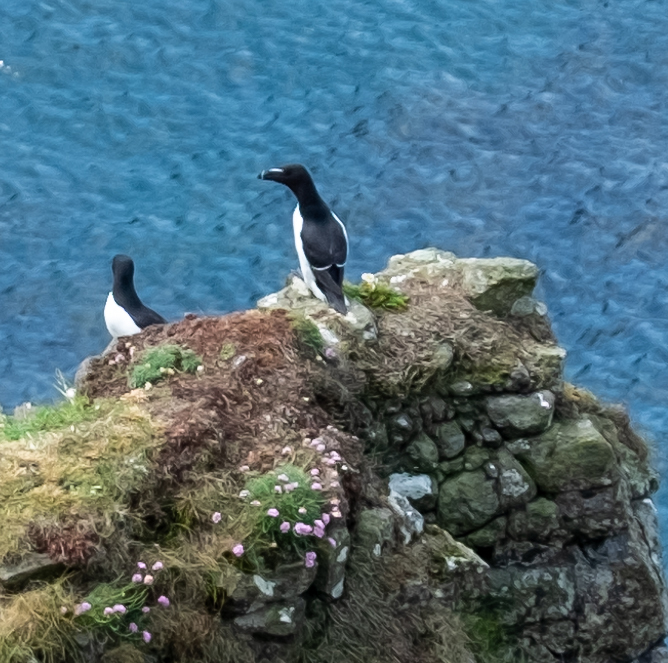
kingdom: Animalia
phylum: Chordata
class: Aves
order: Charadriiformes
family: Alcidae
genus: Alca
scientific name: Alca torda
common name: Razorbill
